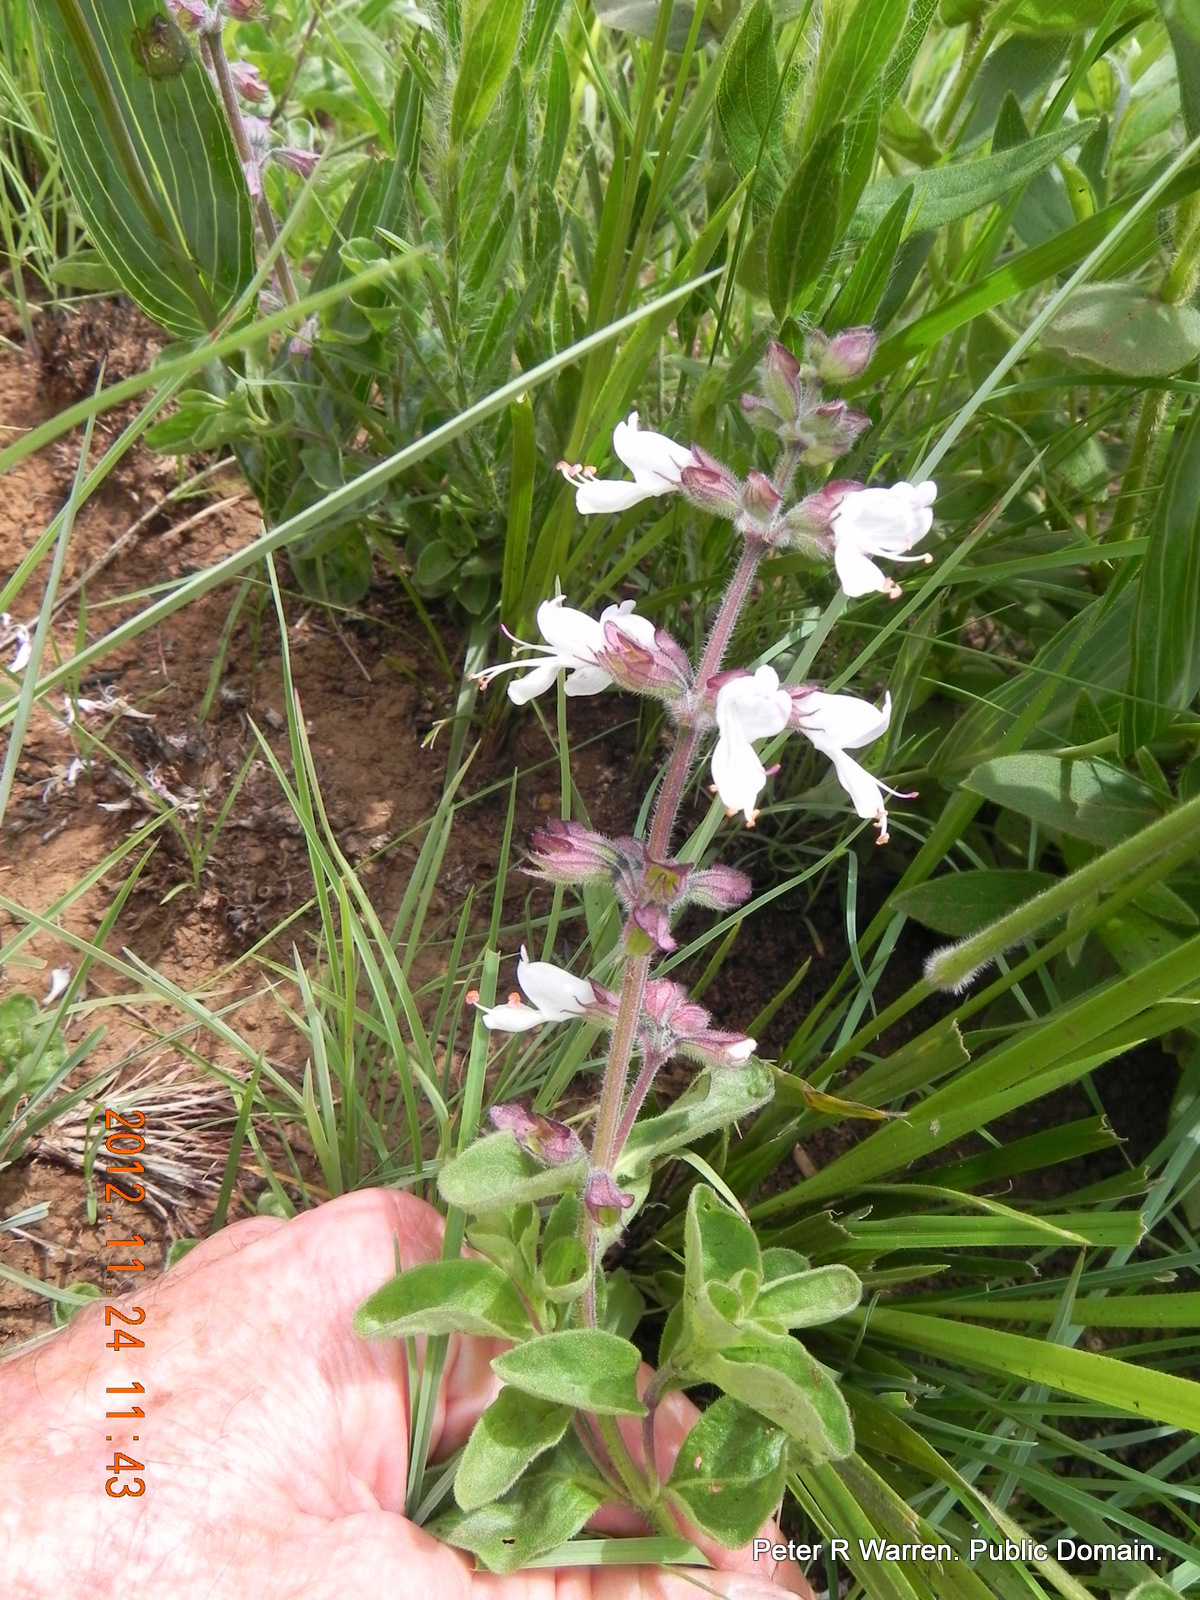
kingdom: Plantae
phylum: Tracheophyta
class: Magnoliopsida
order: Lamiales
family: Lamiaceae
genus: Syncolostemon
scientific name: Syncolostemon bolusii
